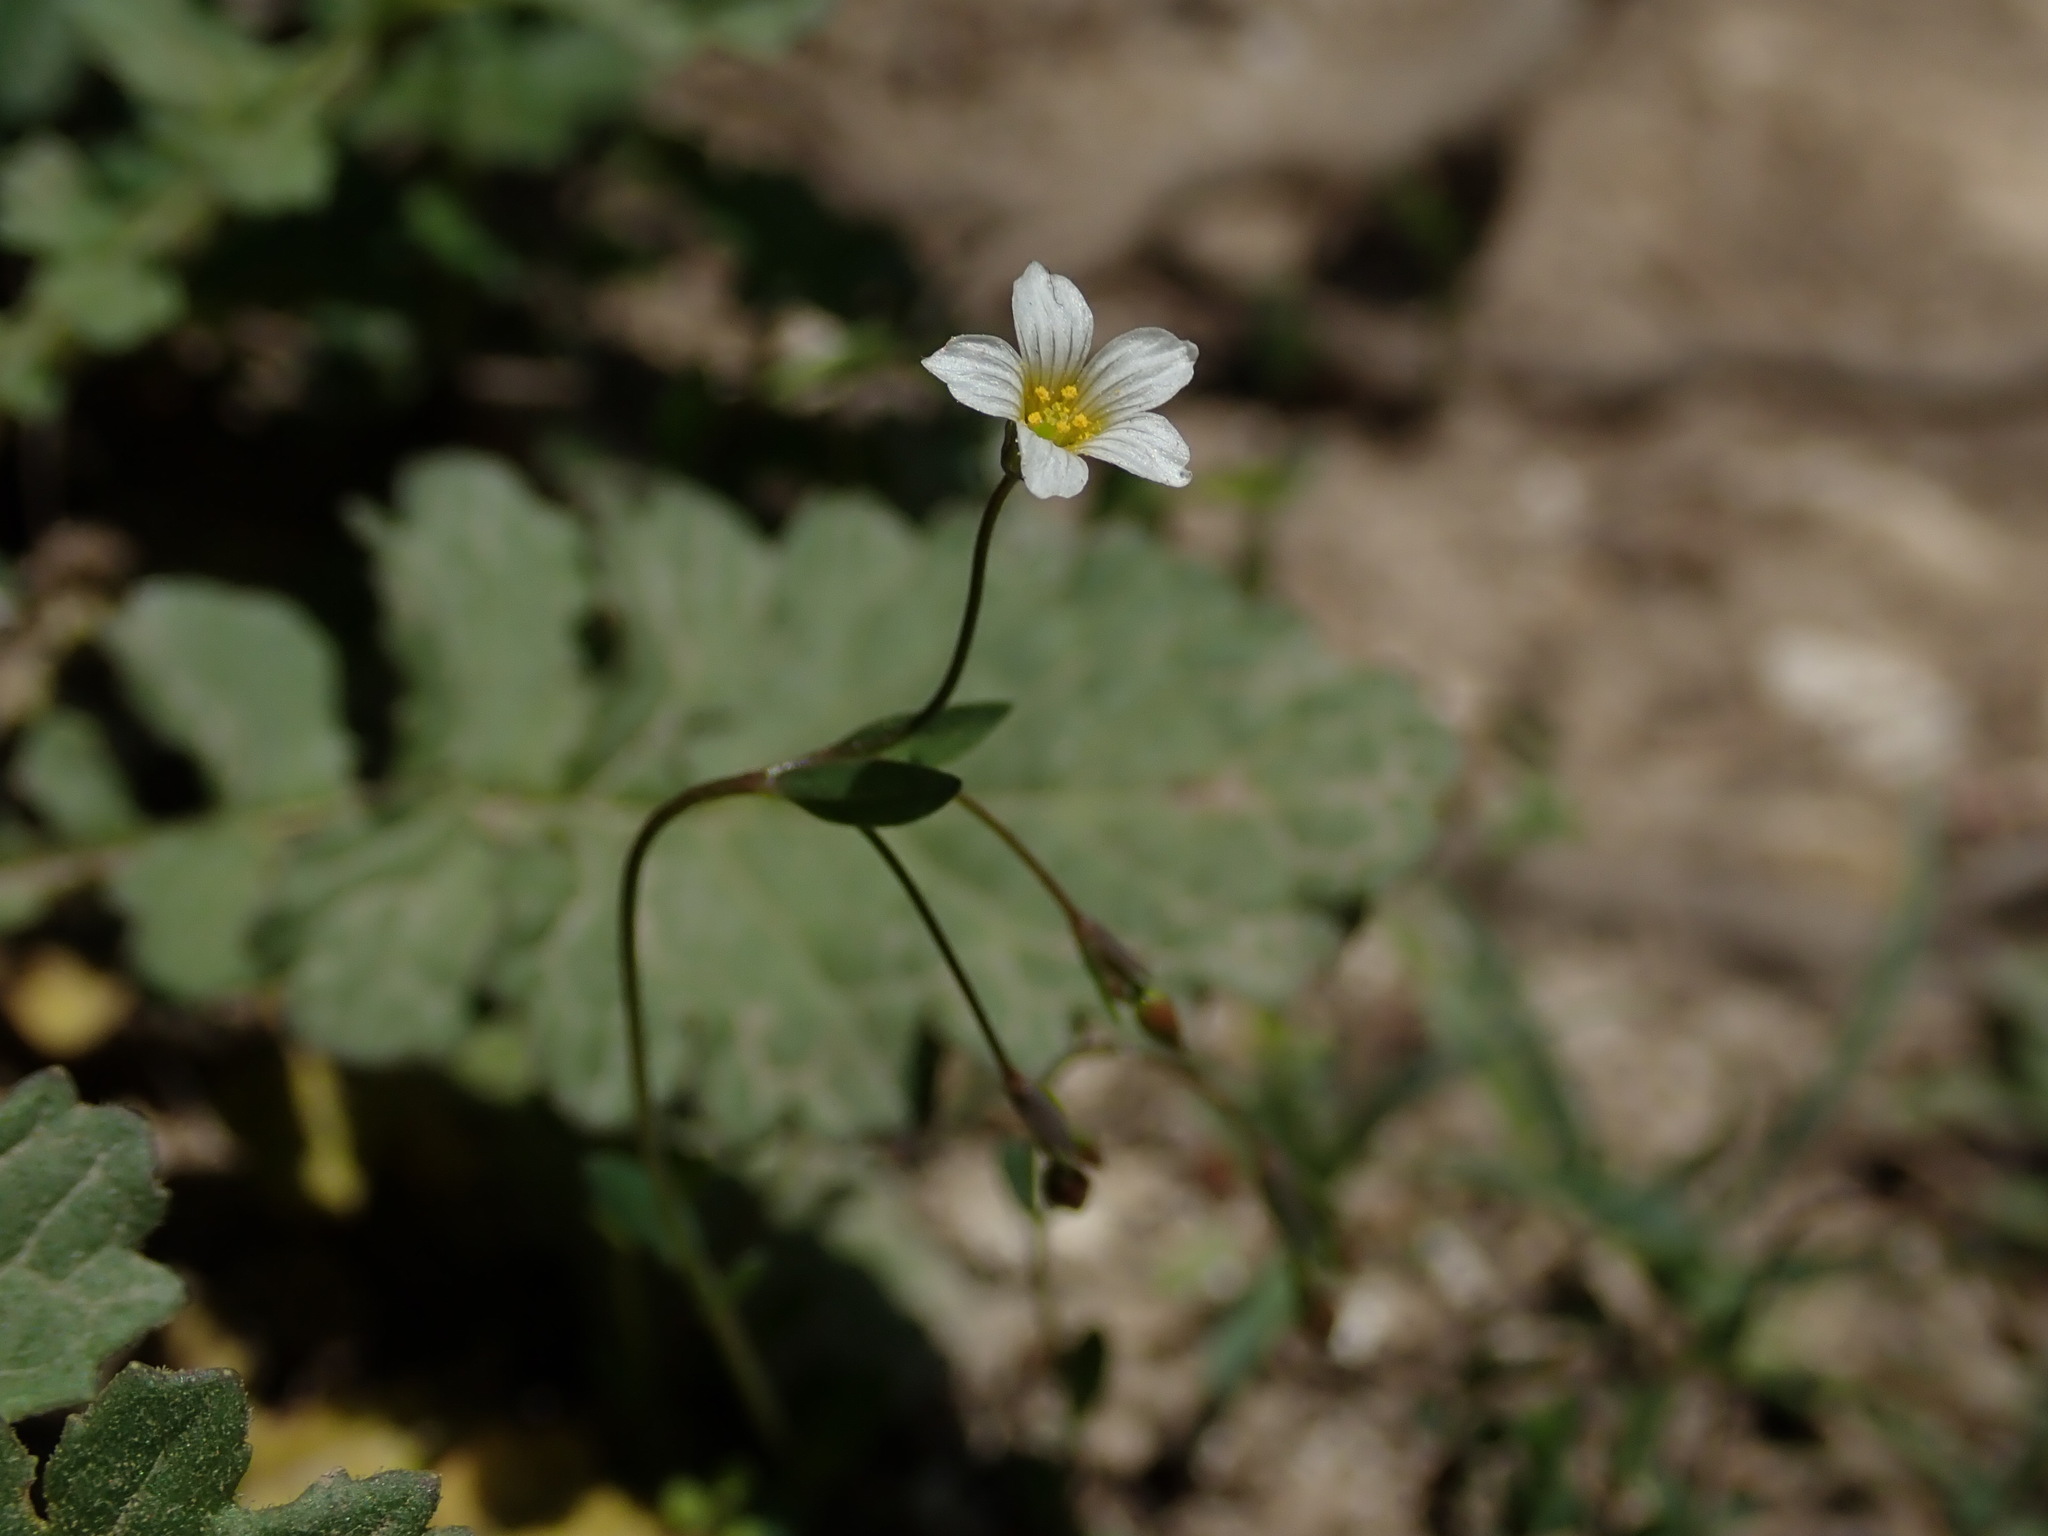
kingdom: Plantae
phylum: Tracheophyta
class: Magnoliopsida
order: Malpighiales
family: Linaceae
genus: Linum
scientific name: Linum catharticum
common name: Fairy flax
